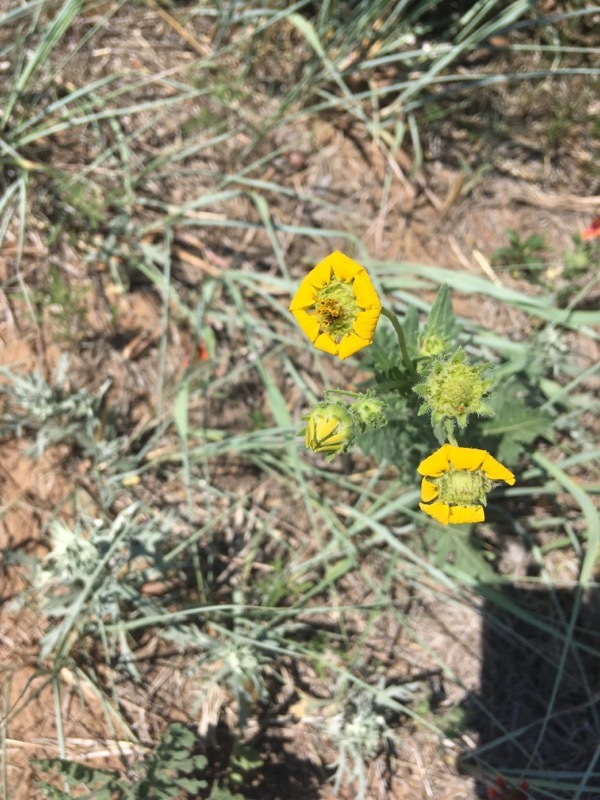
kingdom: Plantae
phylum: Tracheophyta
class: Magnoliopsida
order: Asterales
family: Asteraceae
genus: Engelmannia
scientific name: Engelmannia peristenia
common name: Engelmann's daisy
